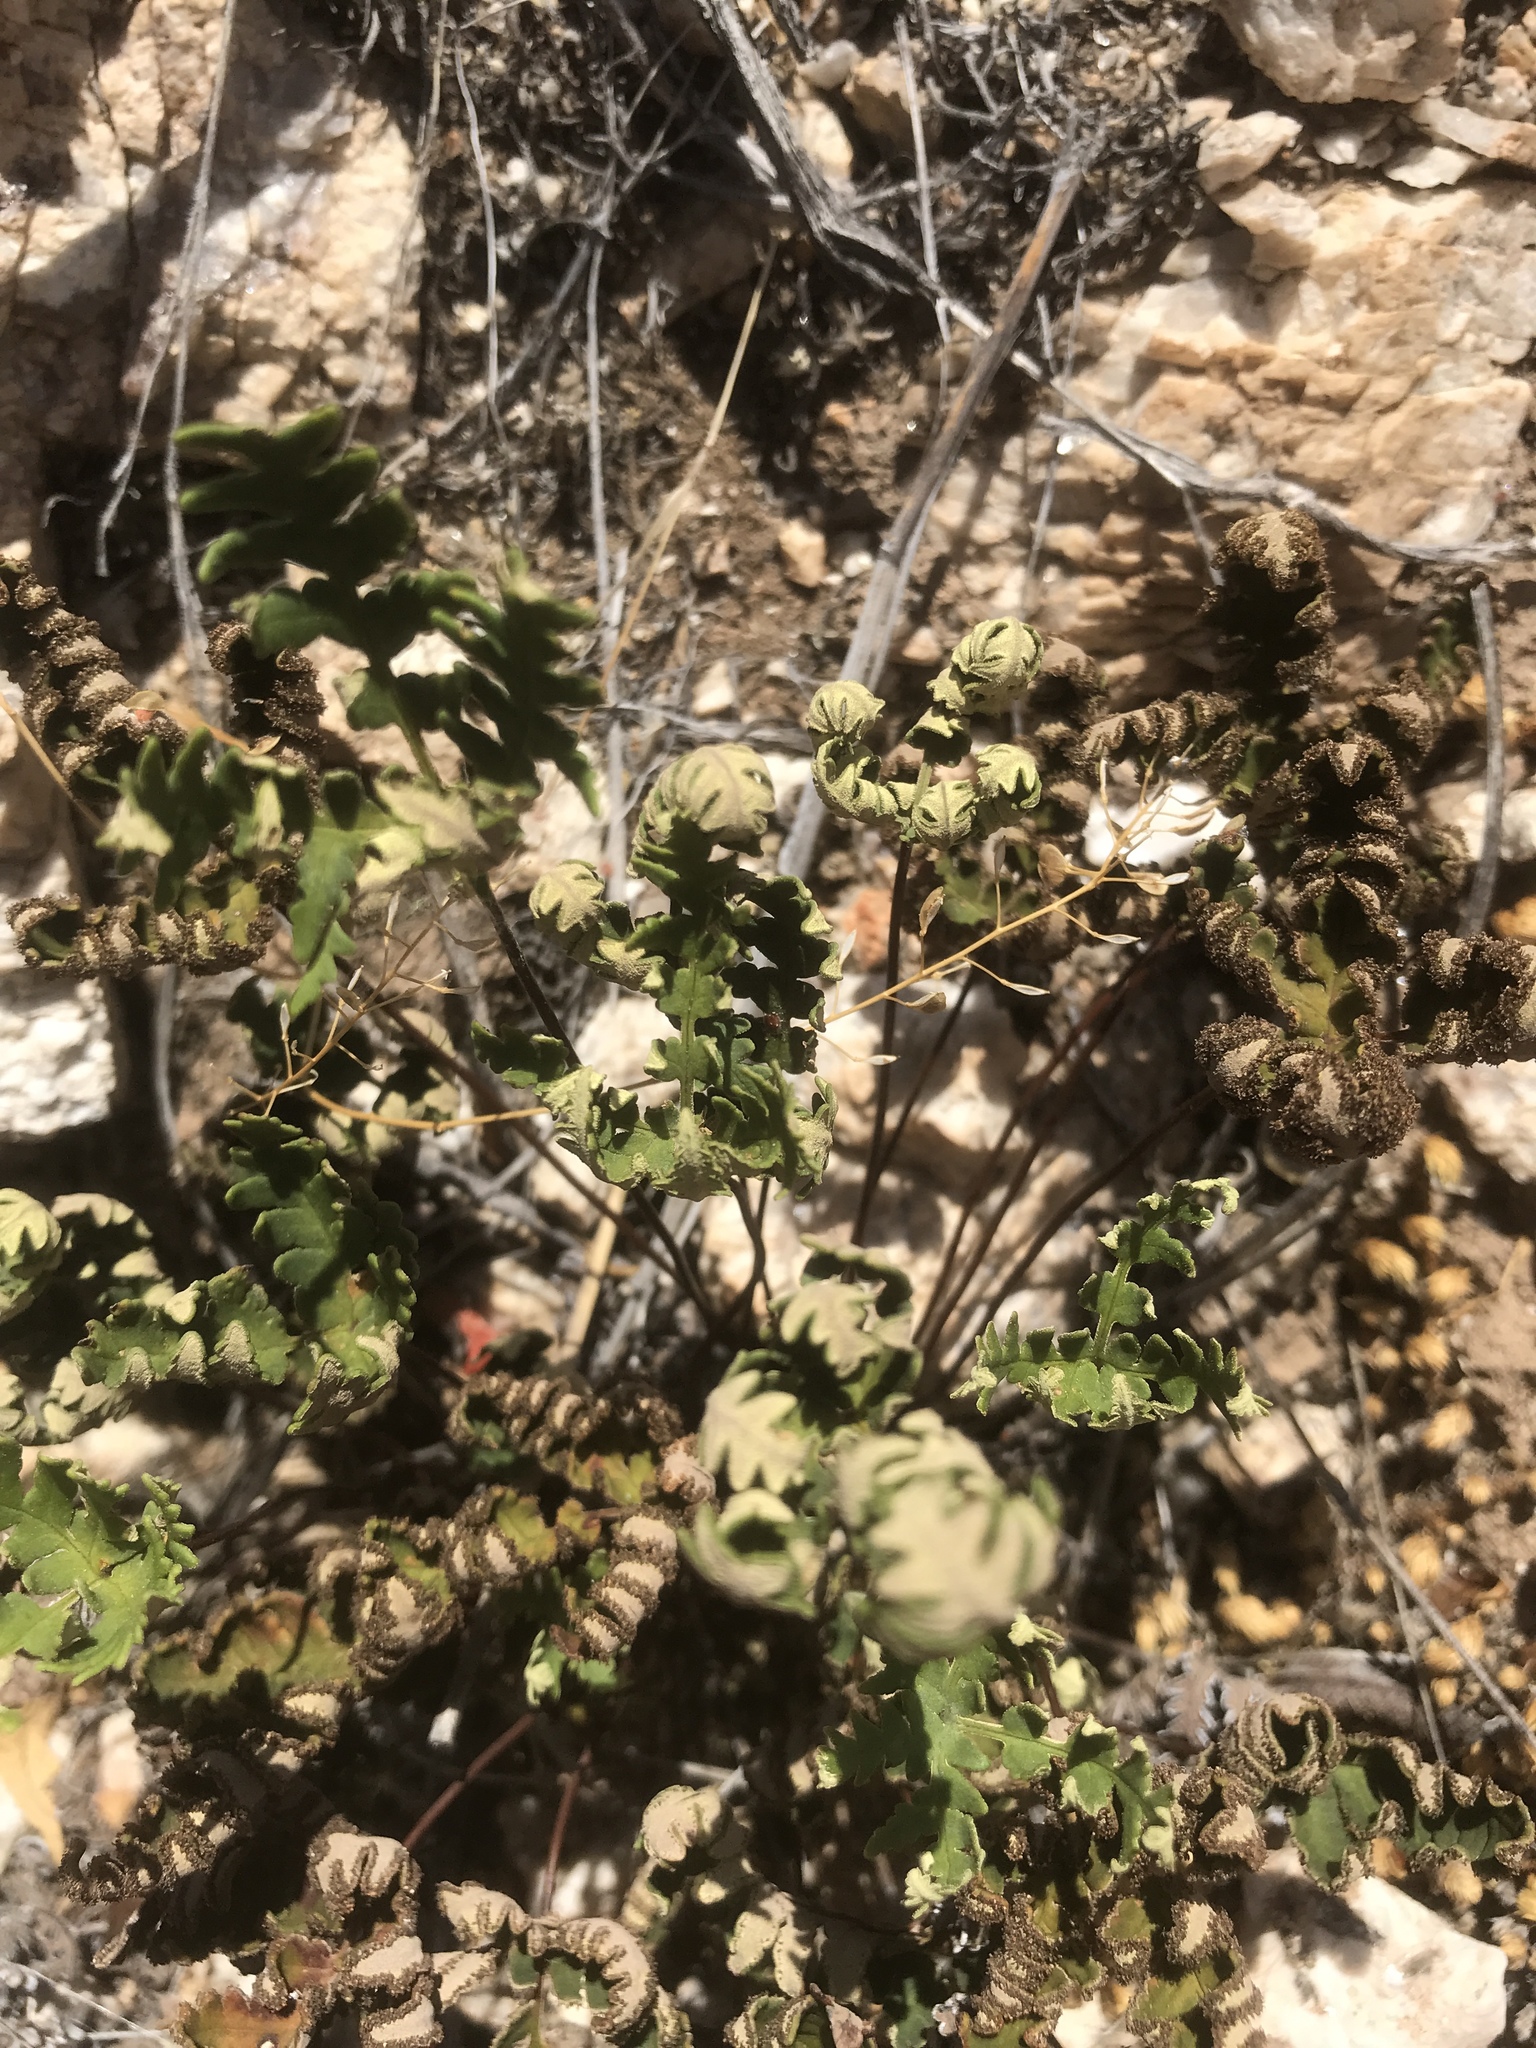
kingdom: Plantae
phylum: Tracheophyta
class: Polypodiopsida
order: Polypodiales
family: Pteridaceae
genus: Notholaena
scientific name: Notholaena standleyi
